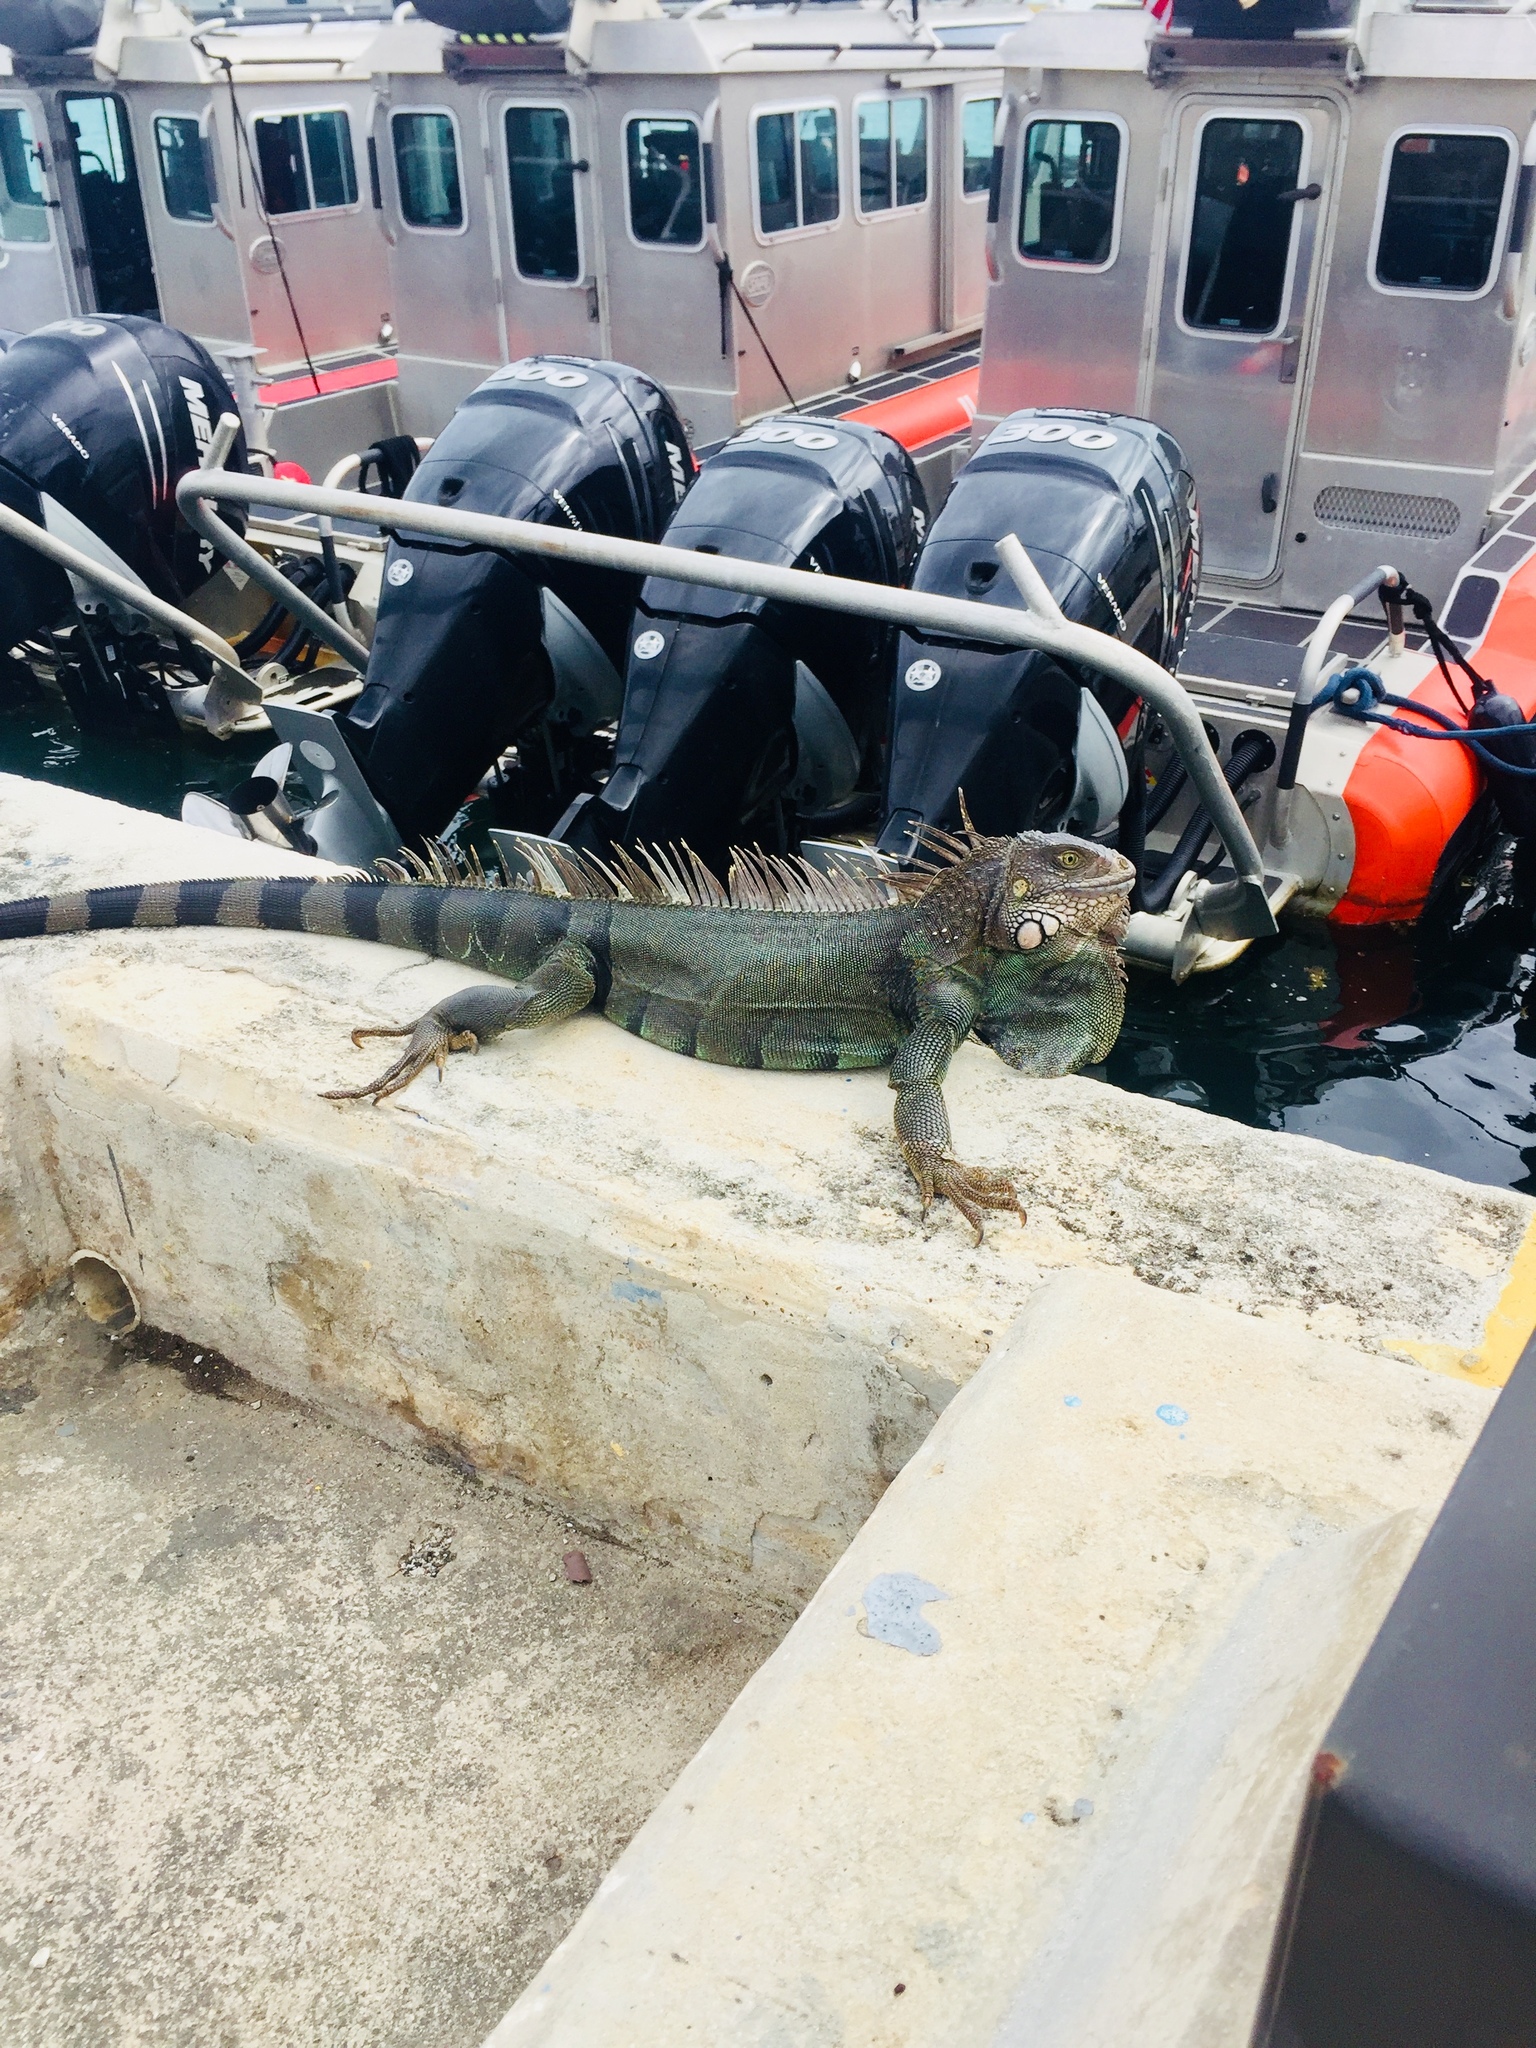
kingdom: Animalia
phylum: Chordata
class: Squamata
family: Iguanidae
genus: Iguana
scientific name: Iguana iguana
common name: Green iguana
